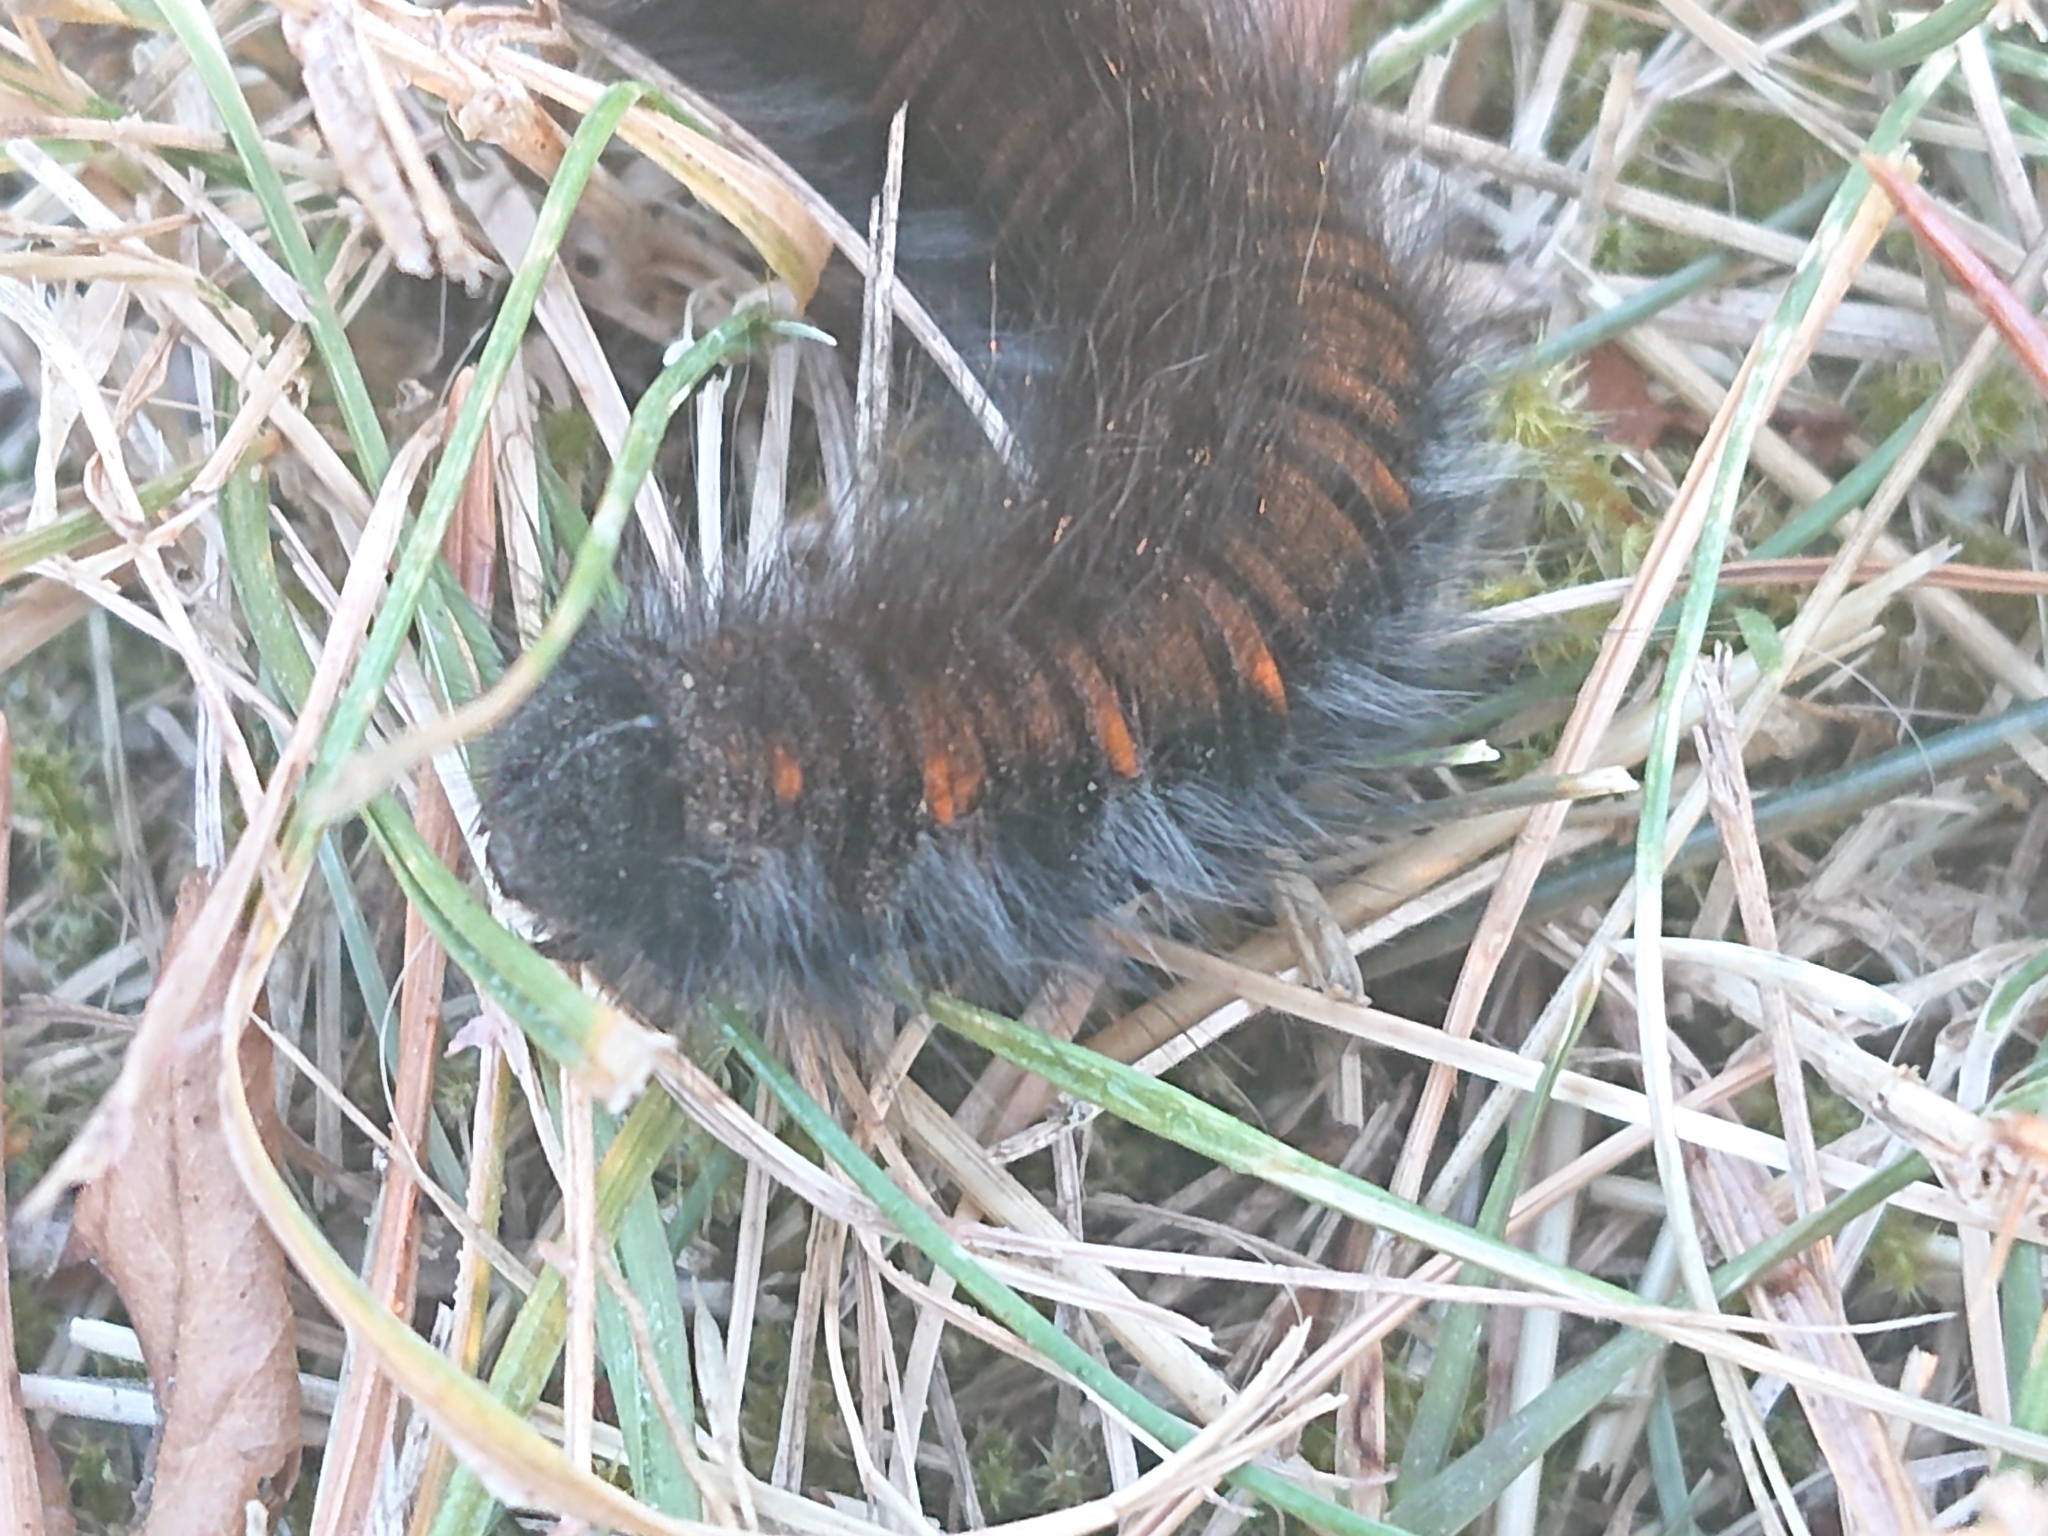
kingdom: Animalia
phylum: Arthropoda
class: Insecta
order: Lepidoptera
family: Lasiocampidae
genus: Macrothylacia
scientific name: Macrothylacia rubi
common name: Fox moth
